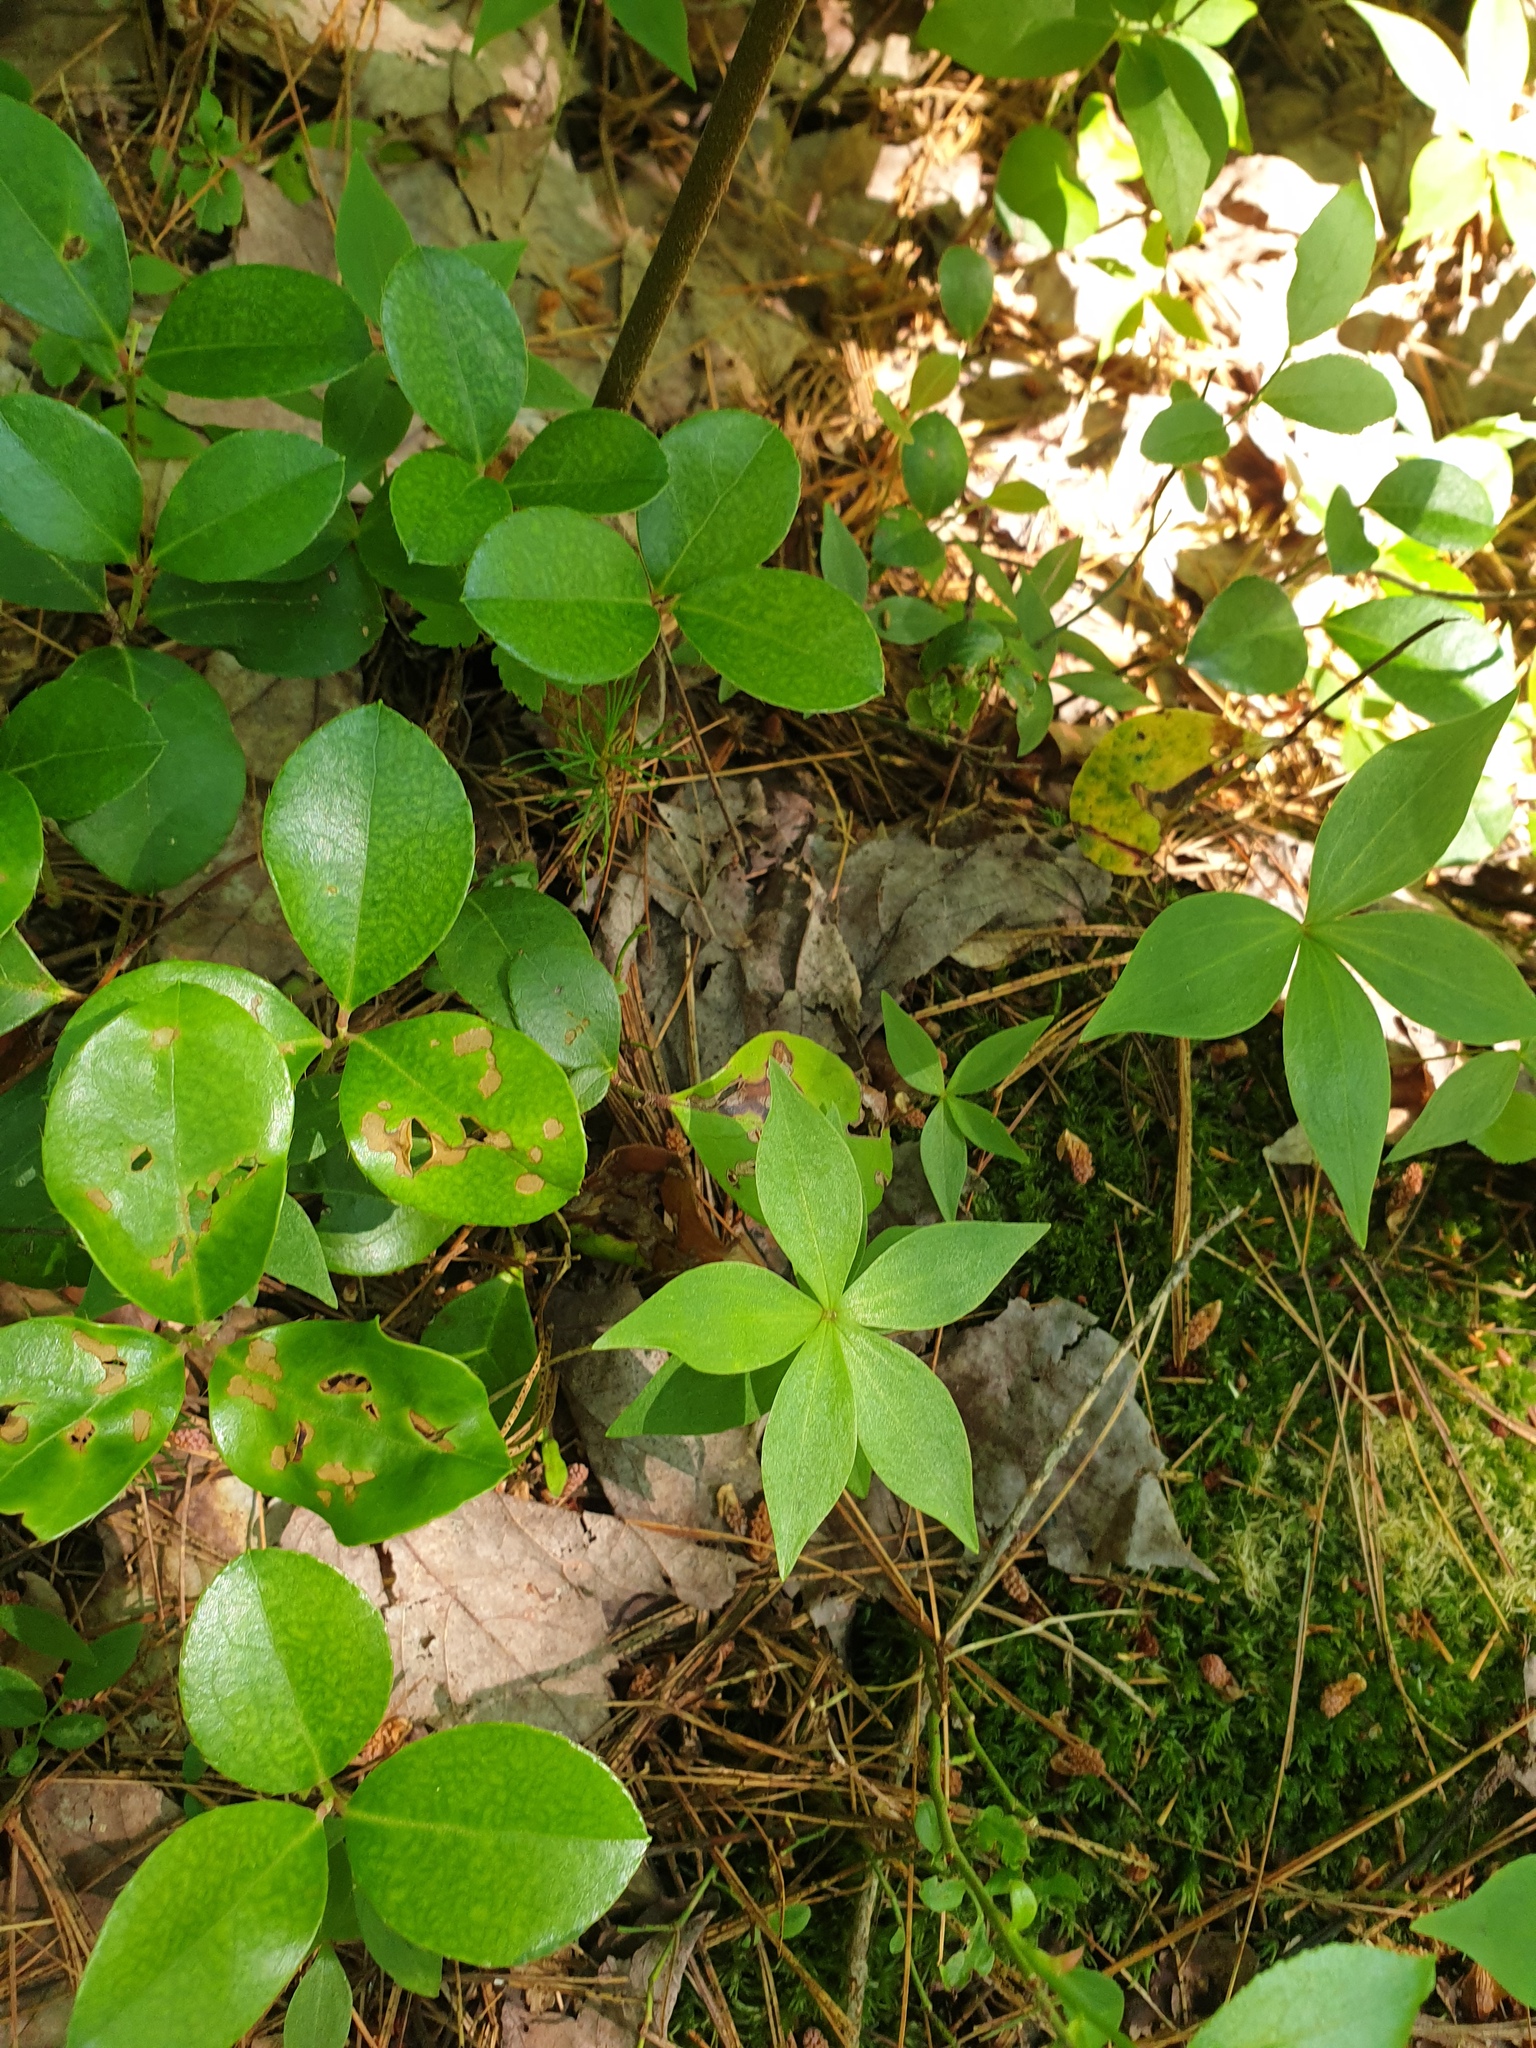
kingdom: Plantae
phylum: Tracheophyta
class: Liliopsida
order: Liliales
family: Liliaceae
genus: Medeola
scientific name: Medeola virginiana
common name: Indian cucumber-root
